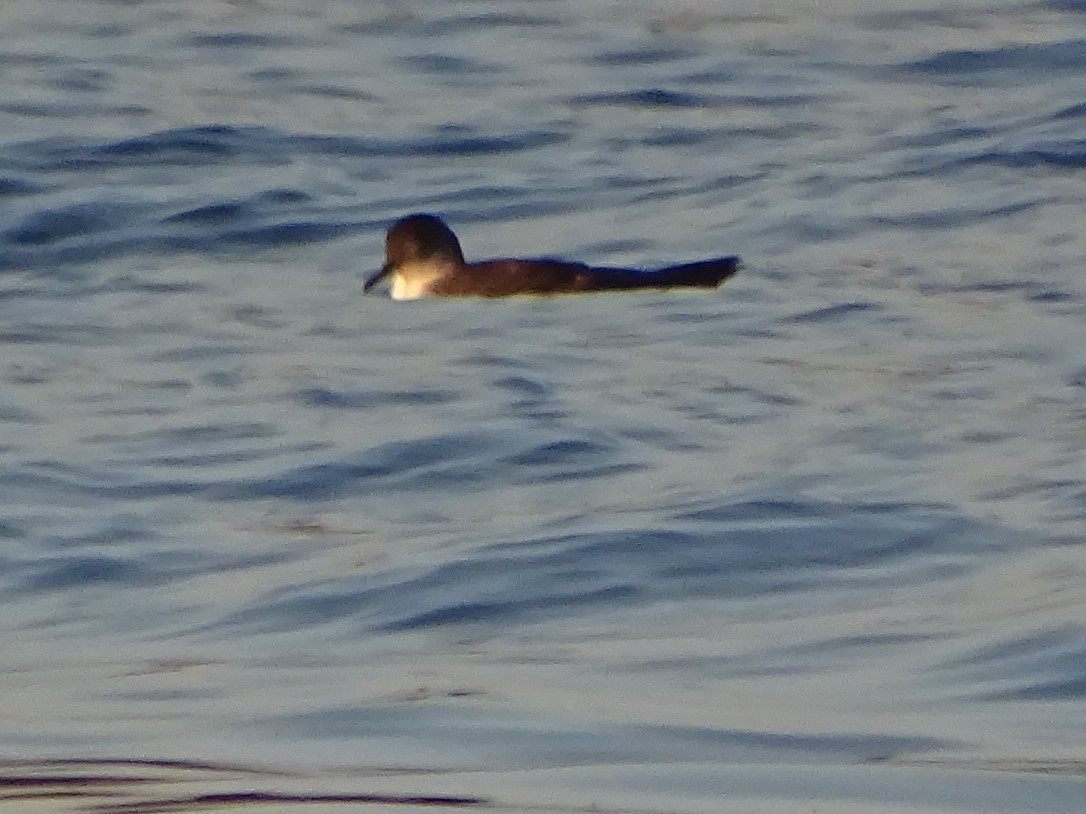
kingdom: Animalia
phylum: Chordata
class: Aves
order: Procellariiformes
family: Procellariidae
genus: Puffinus
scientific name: Puffinus yelkouan
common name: Yelkouan shearwater
